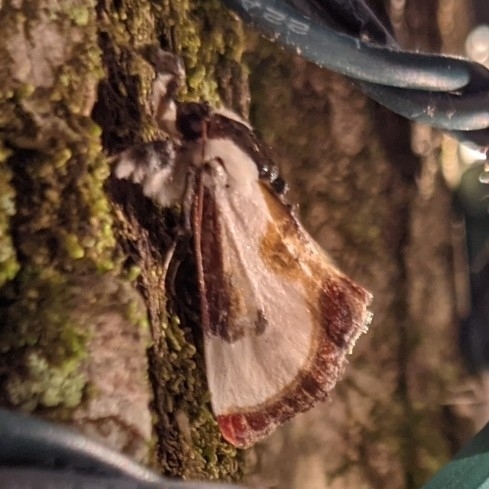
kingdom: Animalia
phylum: Arthropoda
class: Insecta
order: Lepidoptera
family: Noctuidae
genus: Eudryas
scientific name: Eudryas grata
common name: Beautiful wood-nymph
